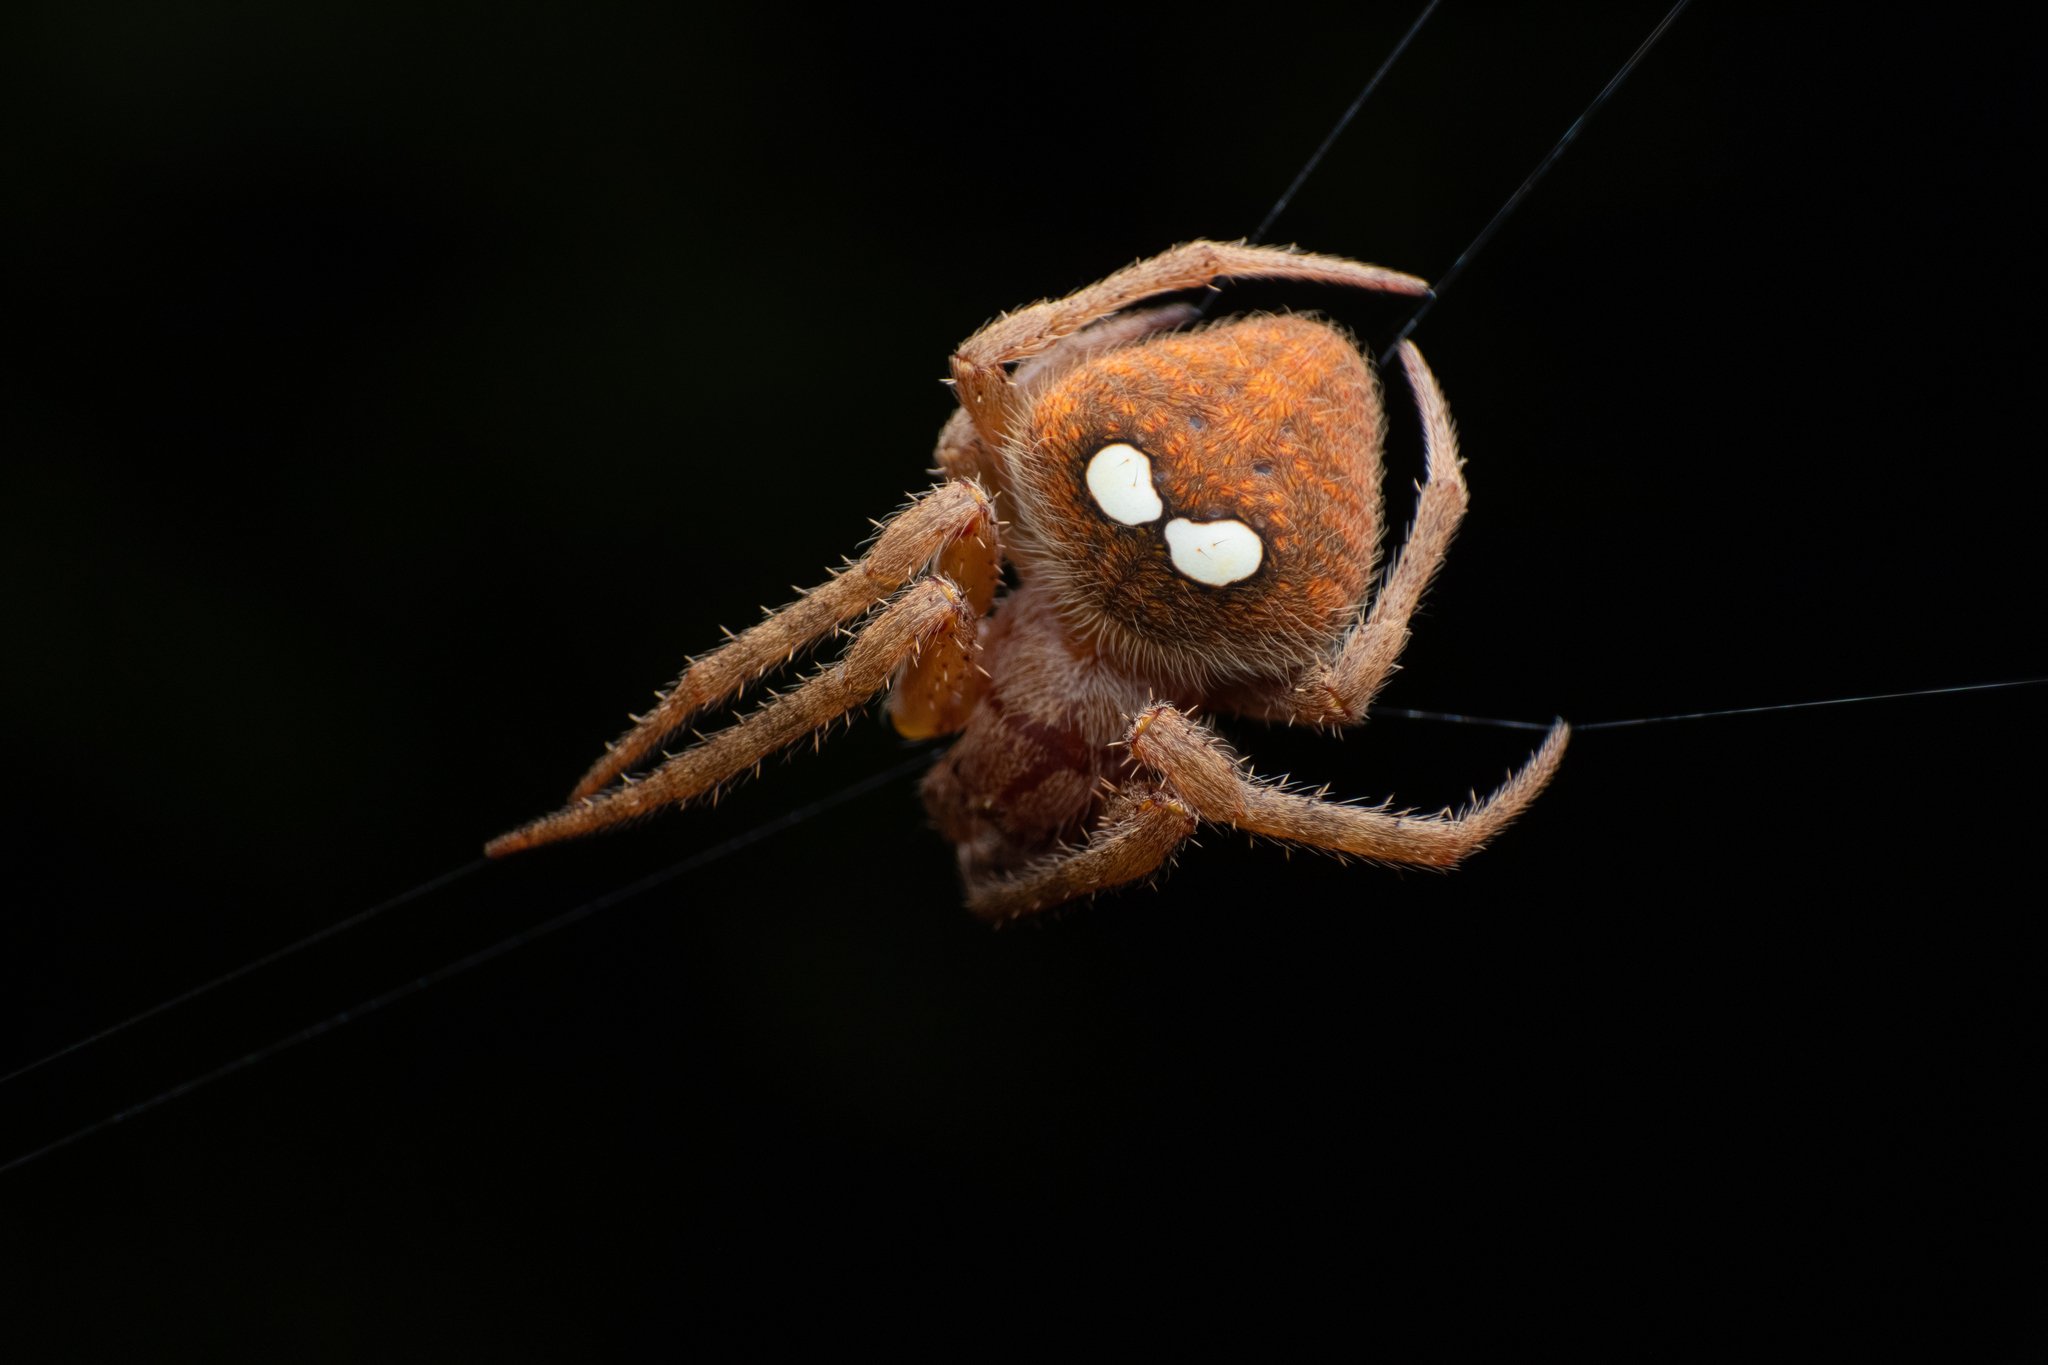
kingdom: Animalia
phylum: Arthropoda
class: Arachnida
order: Araneae
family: Araneidae
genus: Araneus
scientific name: Araneus bilunifer
